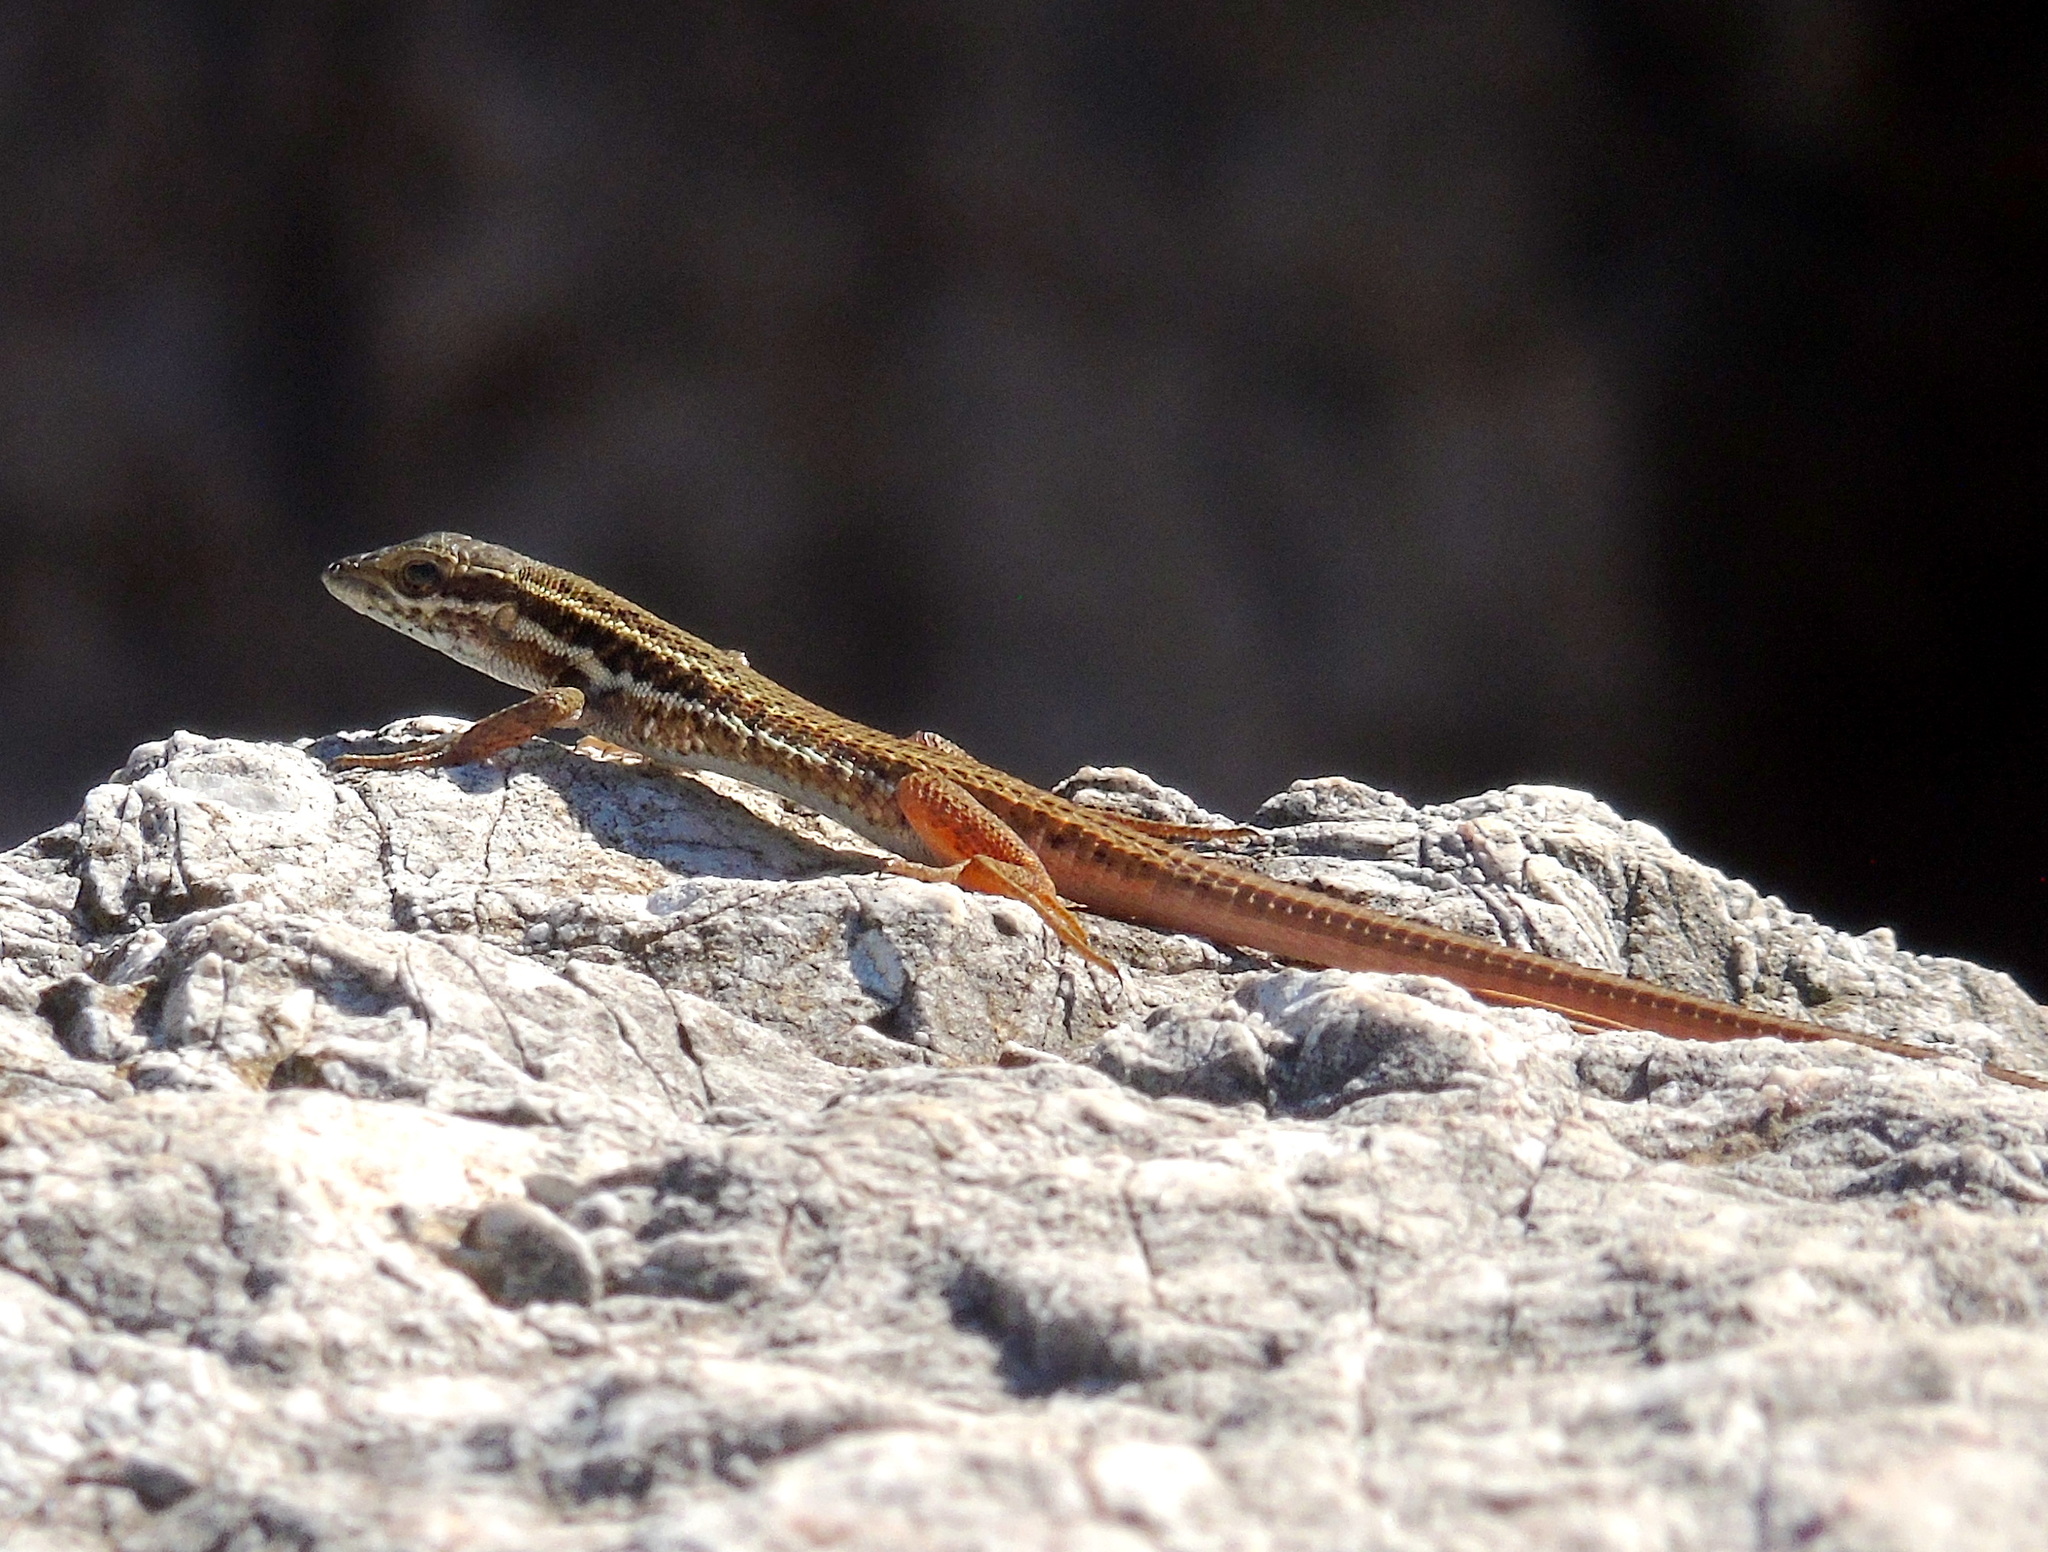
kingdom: Animalia
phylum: Chordata
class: Squamata
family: Lacertidae
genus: Ophisops
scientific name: Ophisops elegans
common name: Snake-eyed lizard
